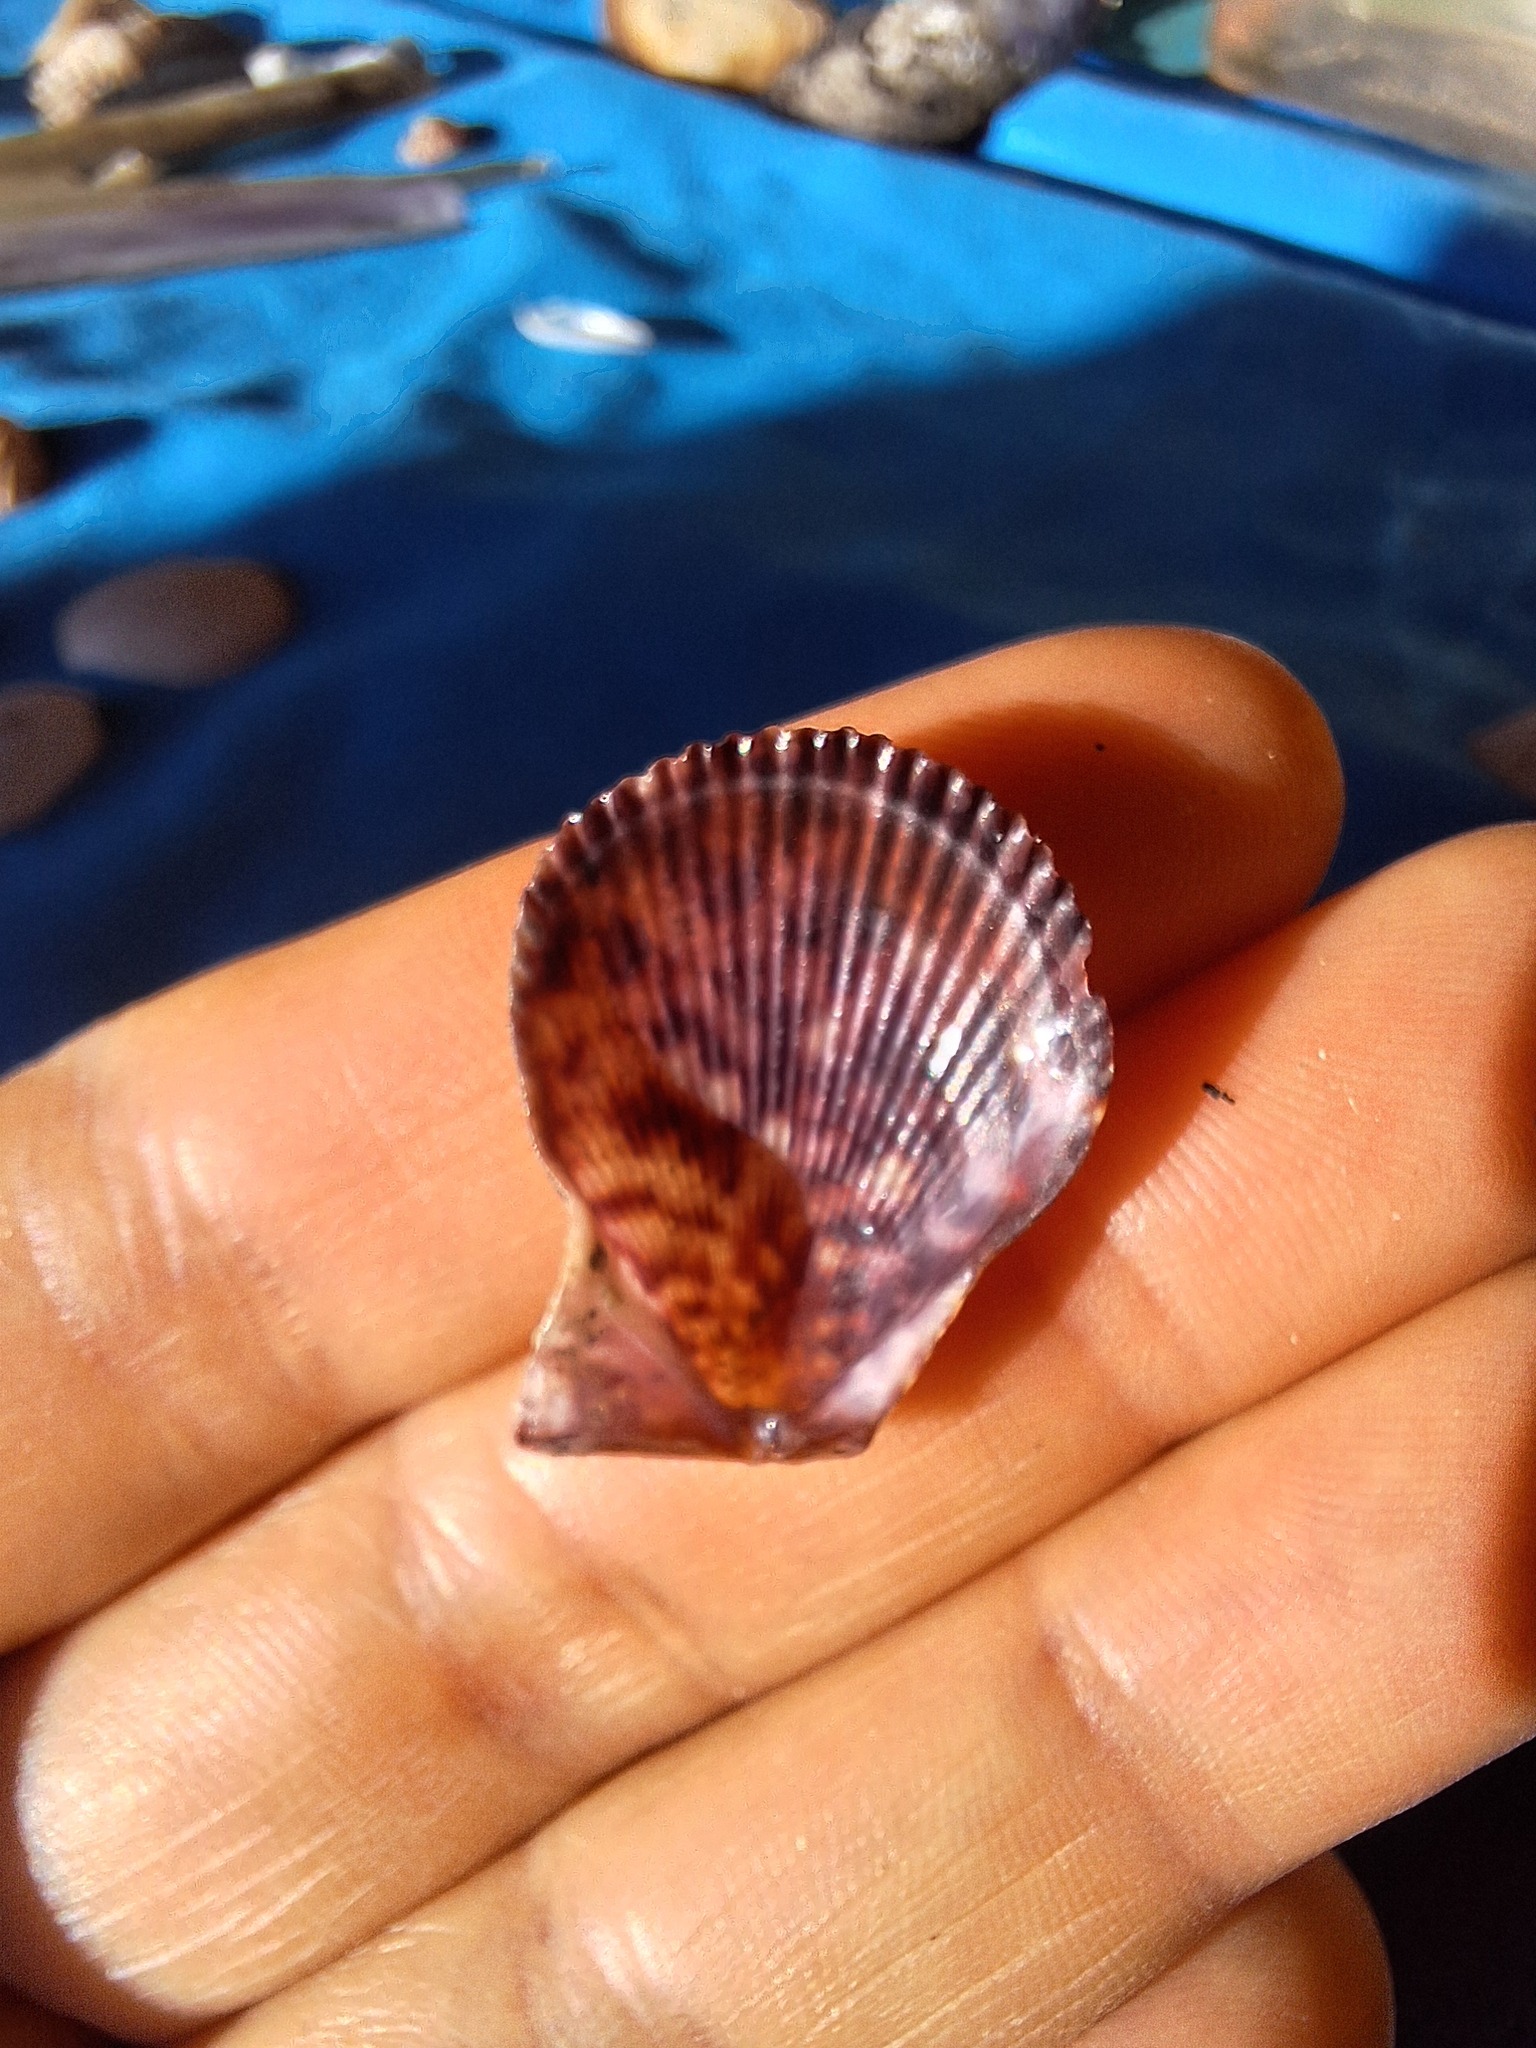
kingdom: Animalia
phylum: Mollusca
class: Bivalvia
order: Pectinida
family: Pectinidae
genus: Mimachlamys
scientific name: Mimachlamys varia
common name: Variegated scallop
